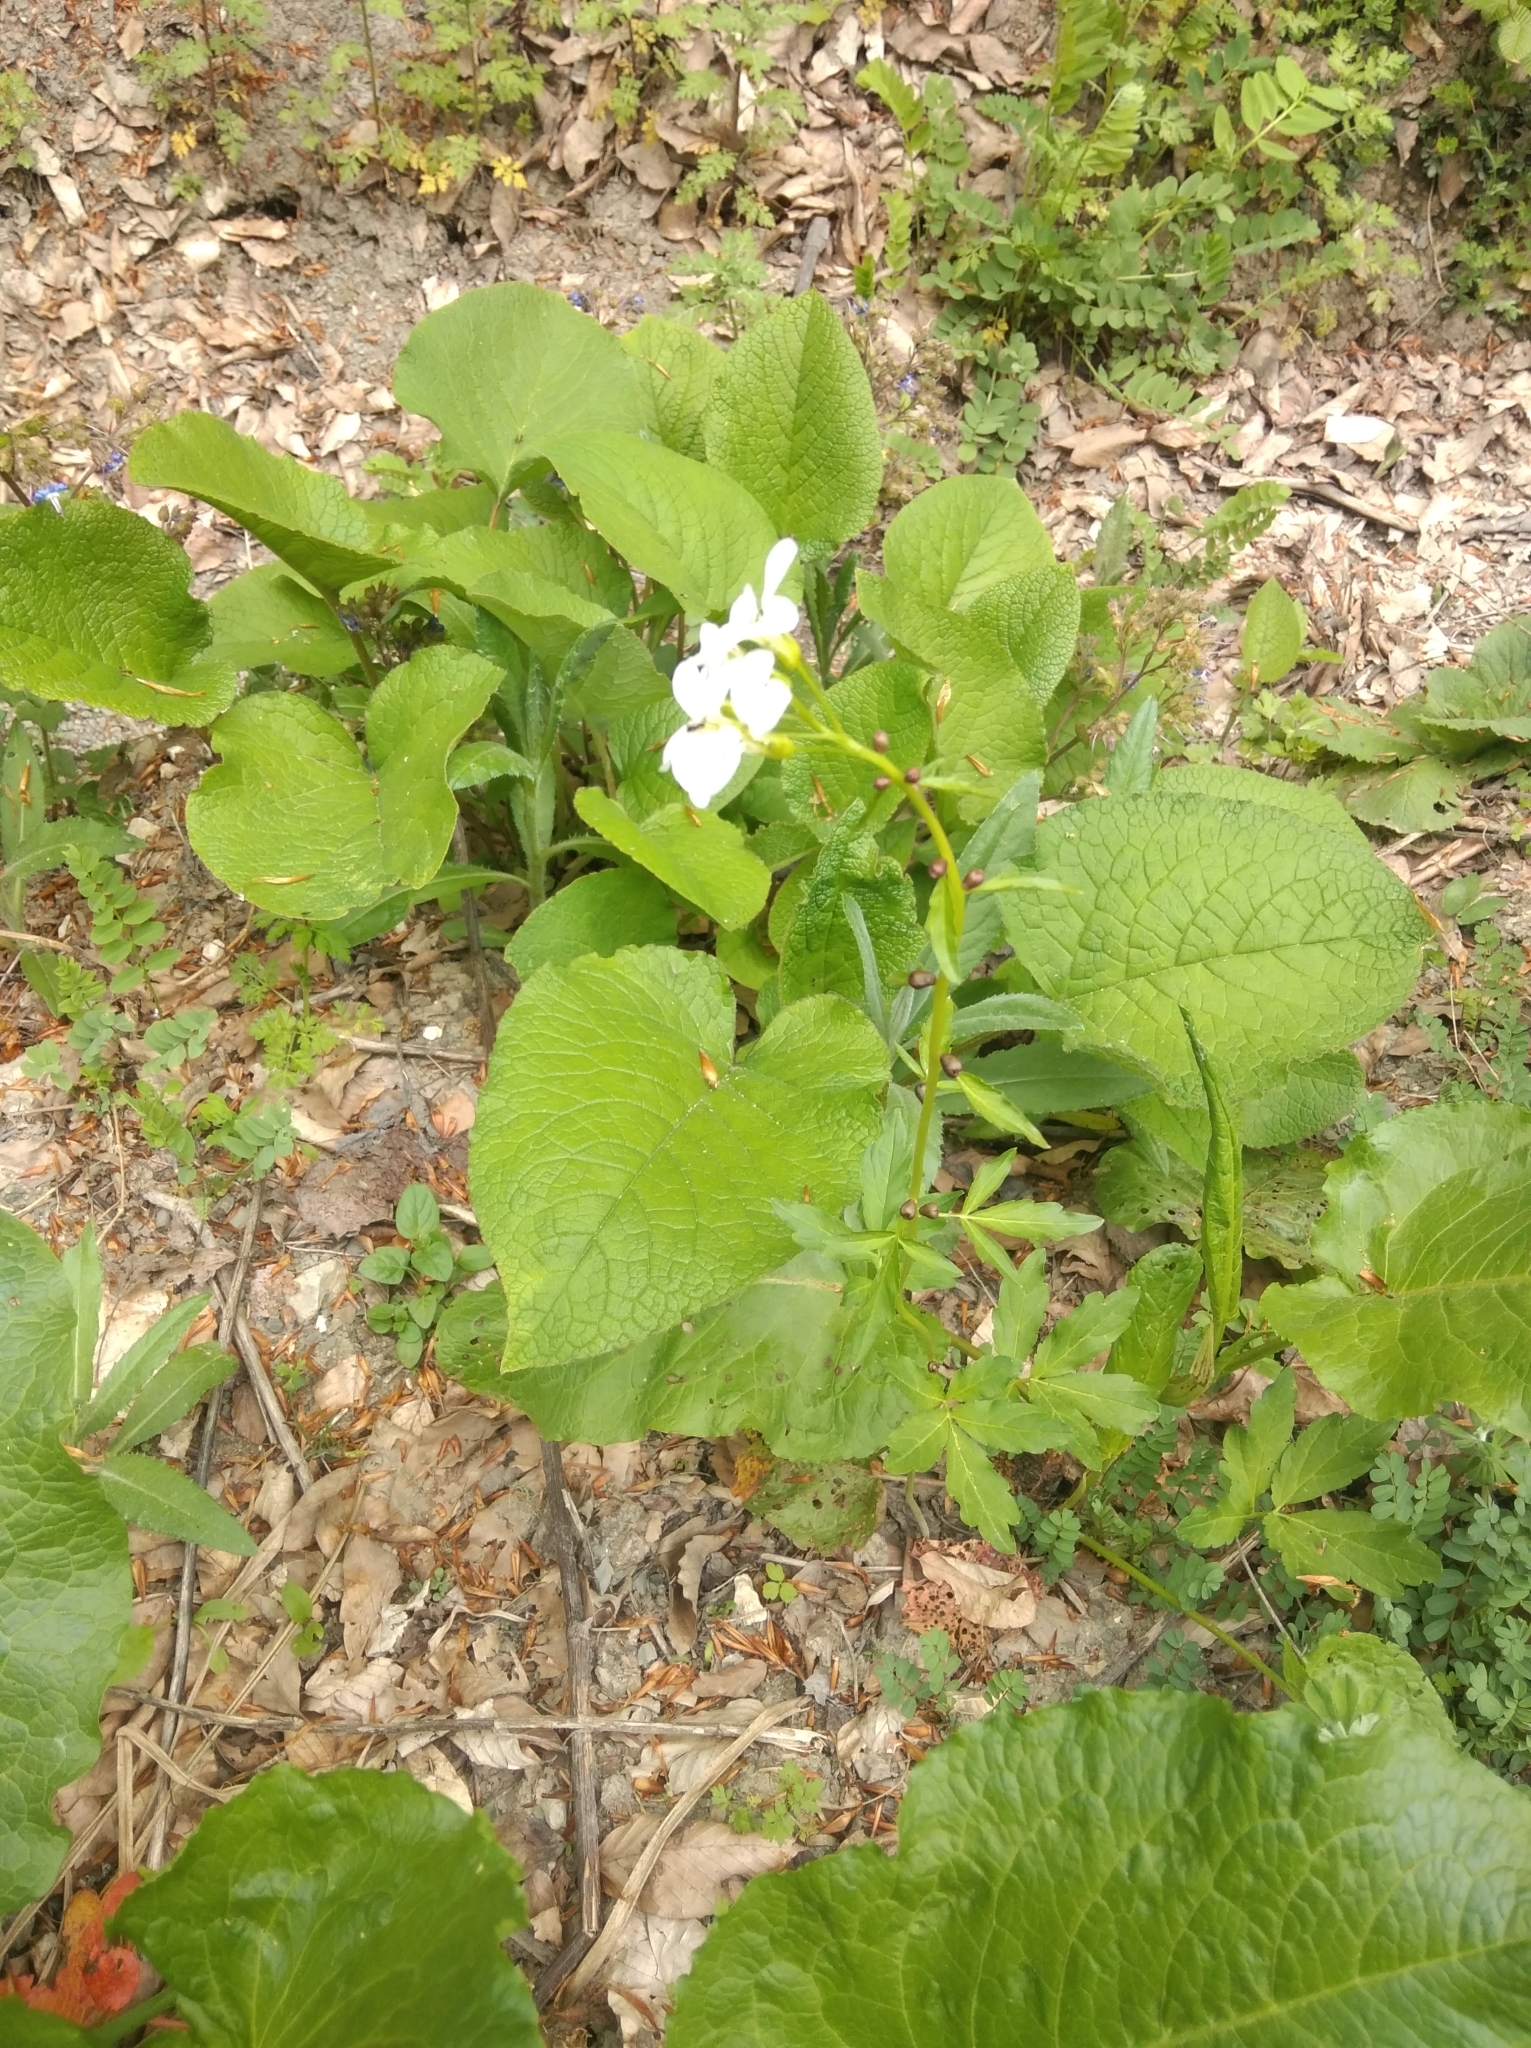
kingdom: Plantae
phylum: Tracheophyta
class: Magnoliopsida
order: Brassicales
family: Brassicaceae
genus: Cardamine
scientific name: Cardamine bulbifera
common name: Coralroot bittercress
